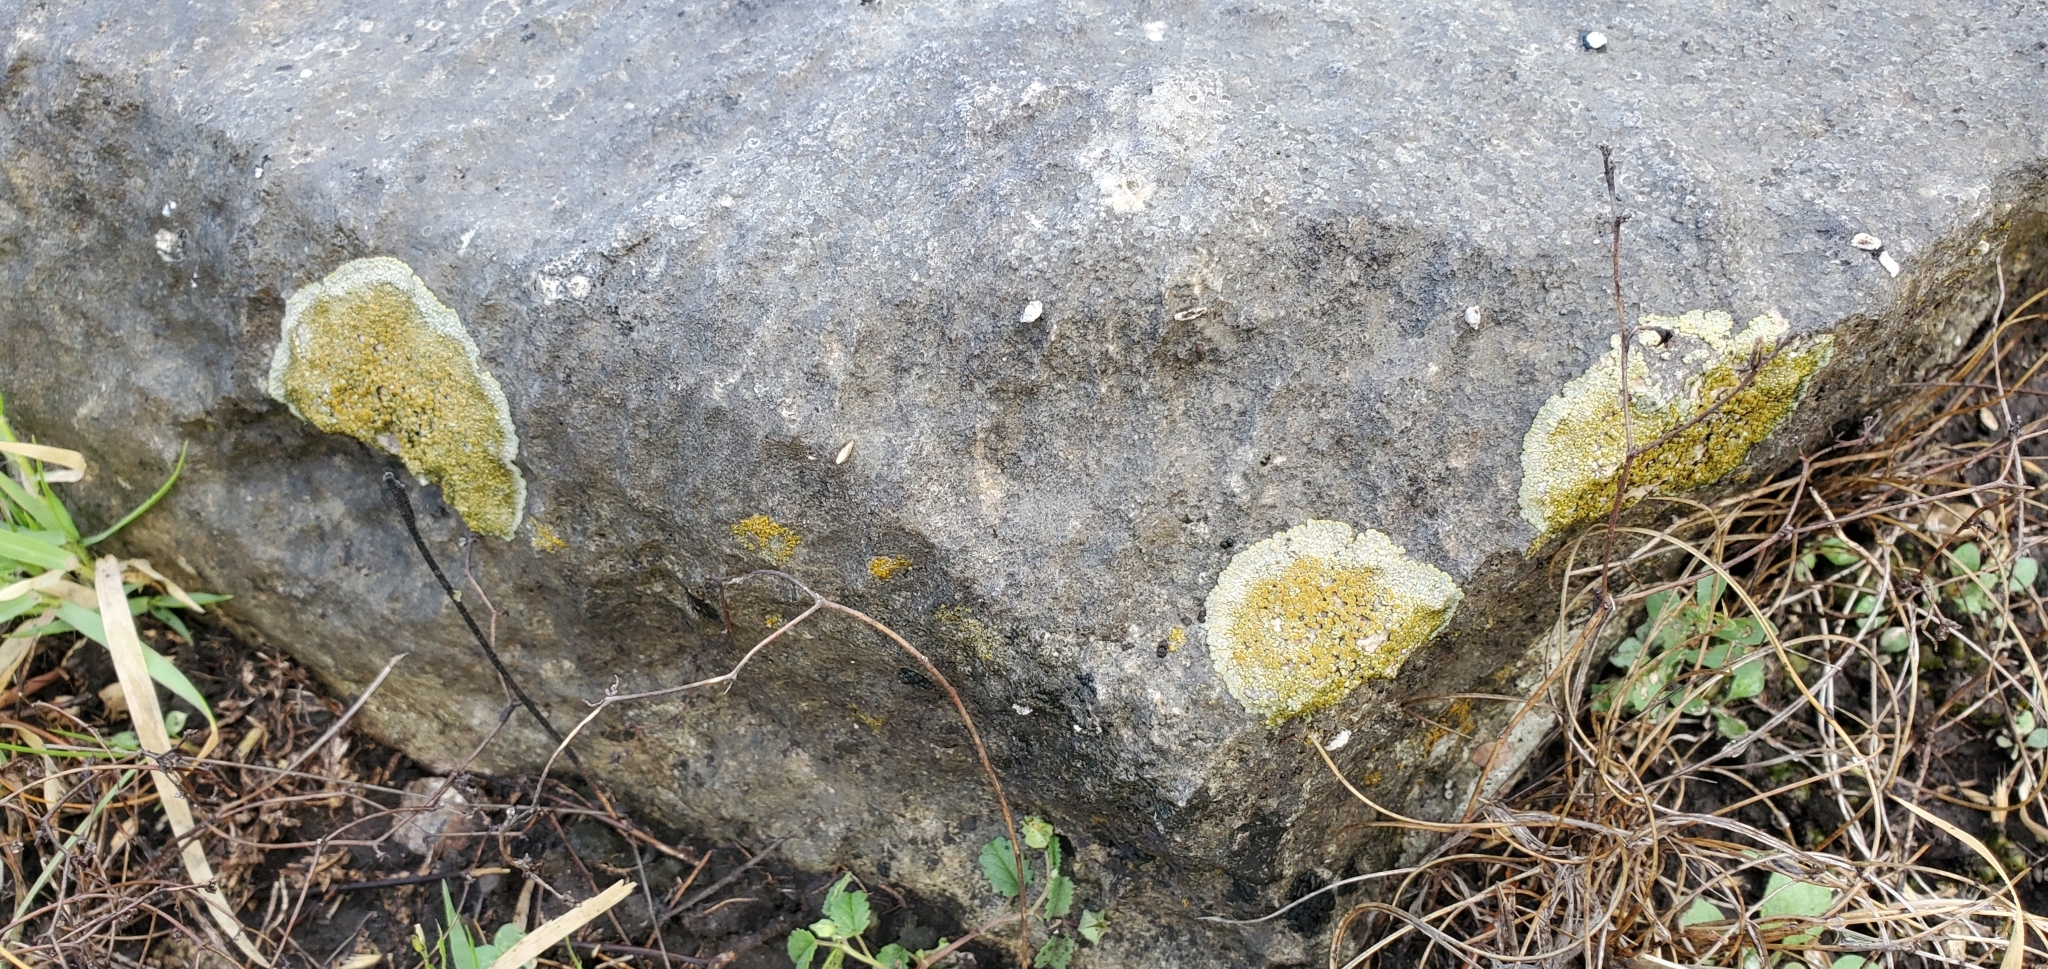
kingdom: Fungi
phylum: Ascomycota
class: Lecanoromycetes
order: Lecanorales
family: Lecanoraceae
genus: Protoparmeliopsis
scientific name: Protoparmeliopsis muralis
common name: Stonewall rim lichen
